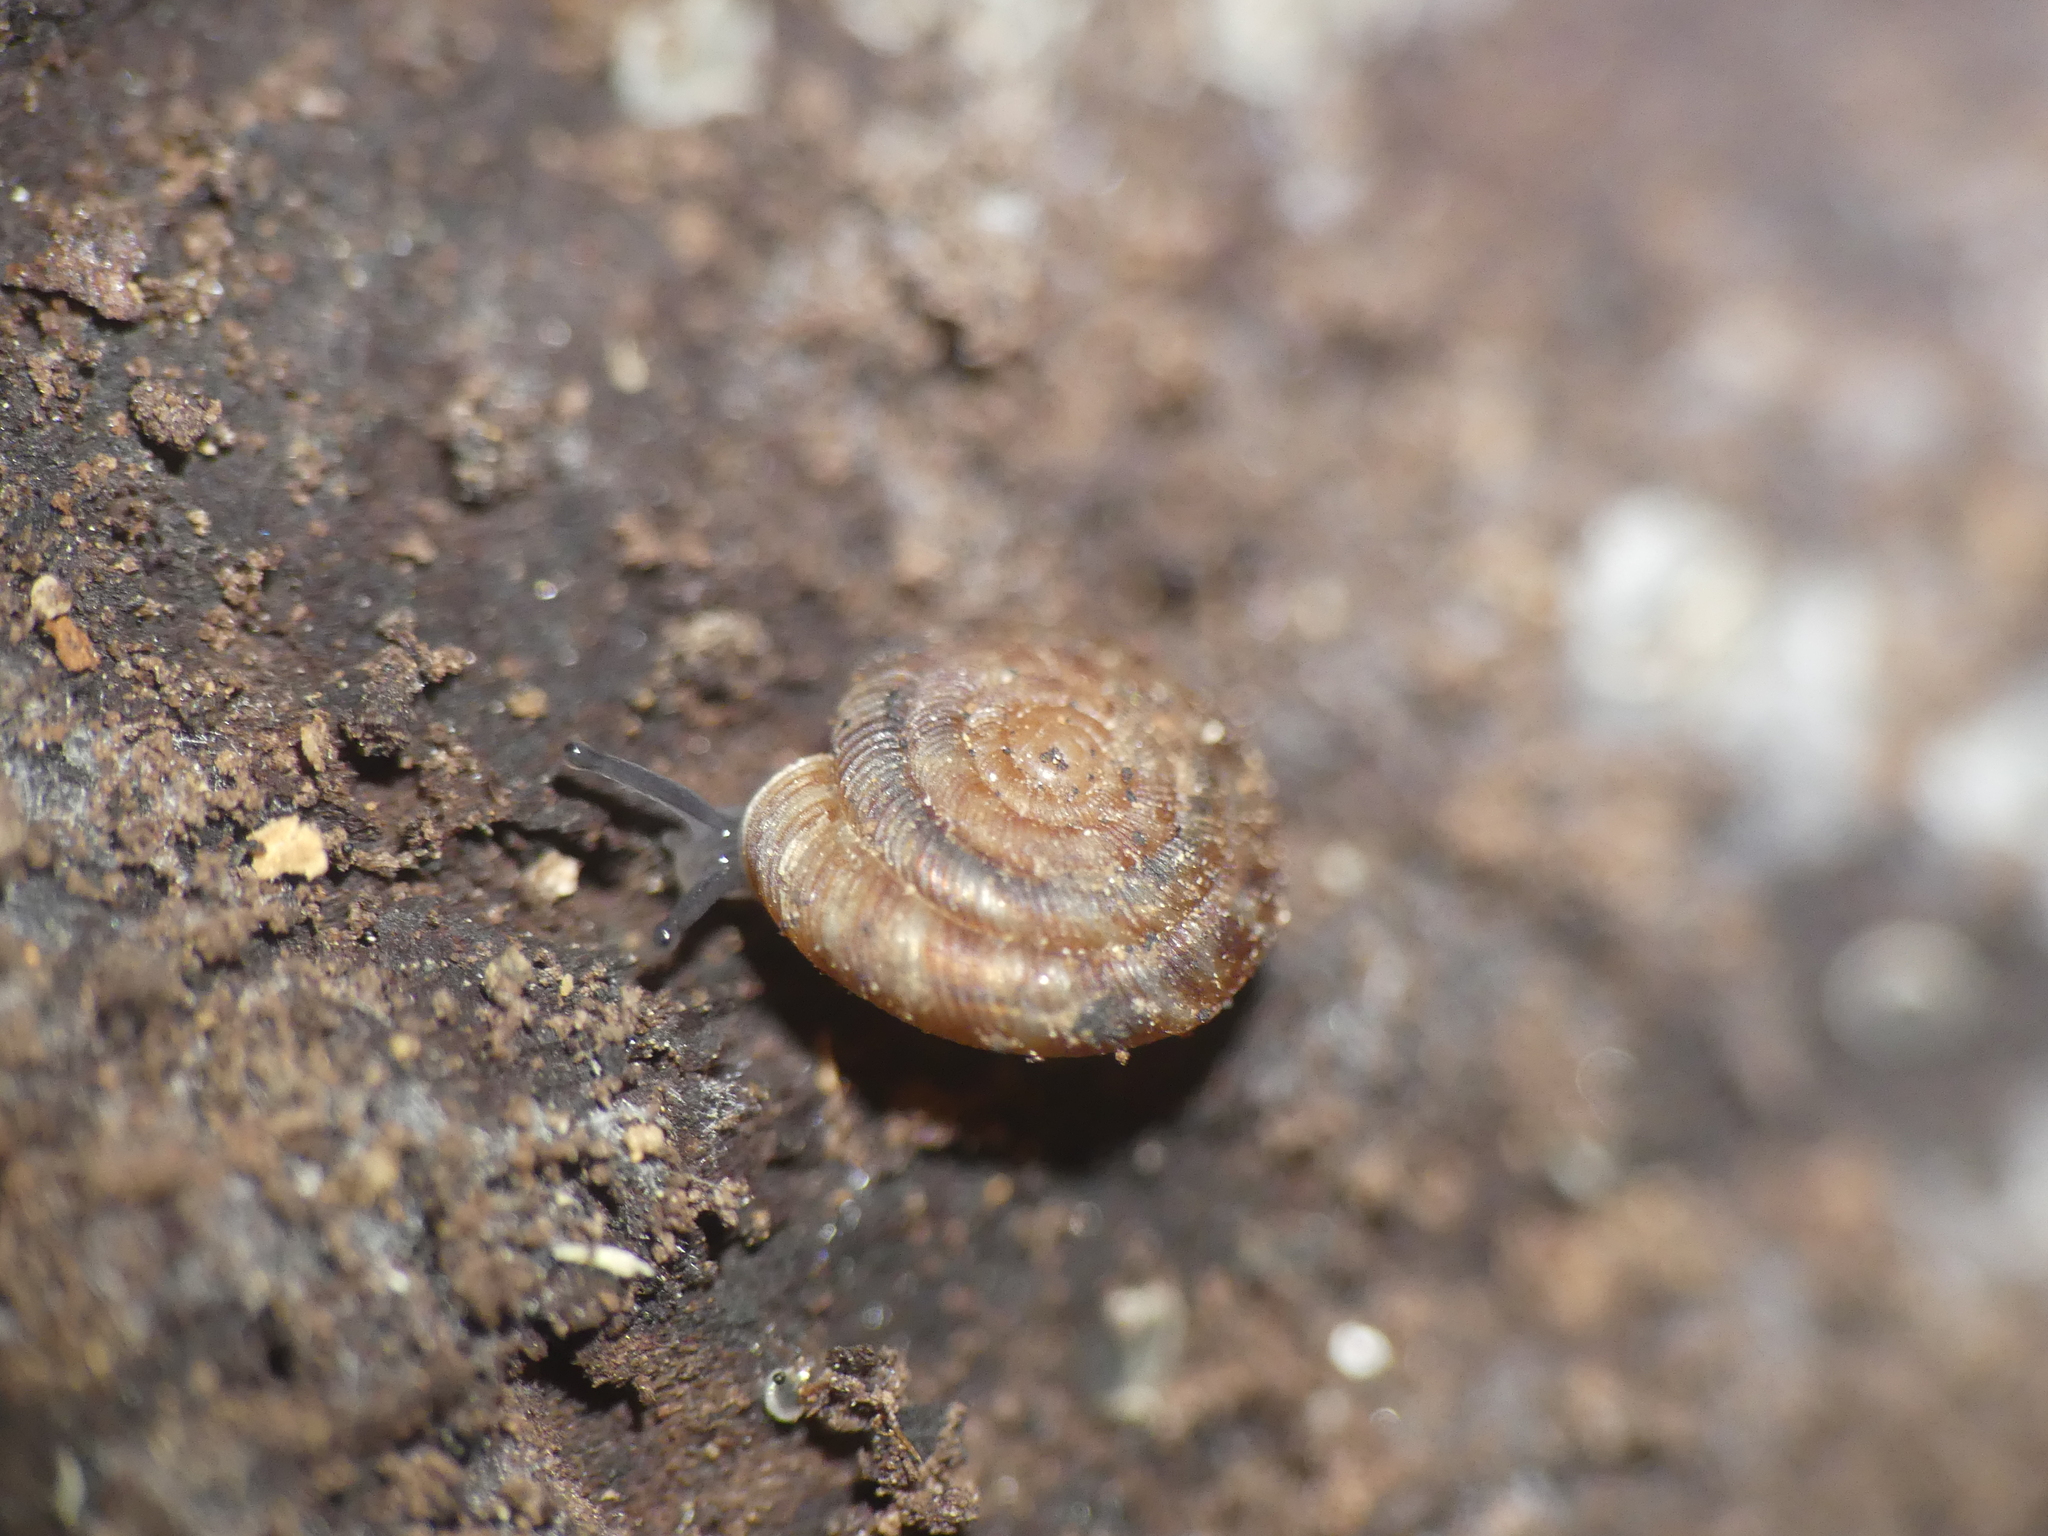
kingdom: Animalia
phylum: Mollusca
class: Gastropoda
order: Stylommatophora
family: Discidae
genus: Discus
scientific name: Discus rotundatus
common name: Rounded snail
